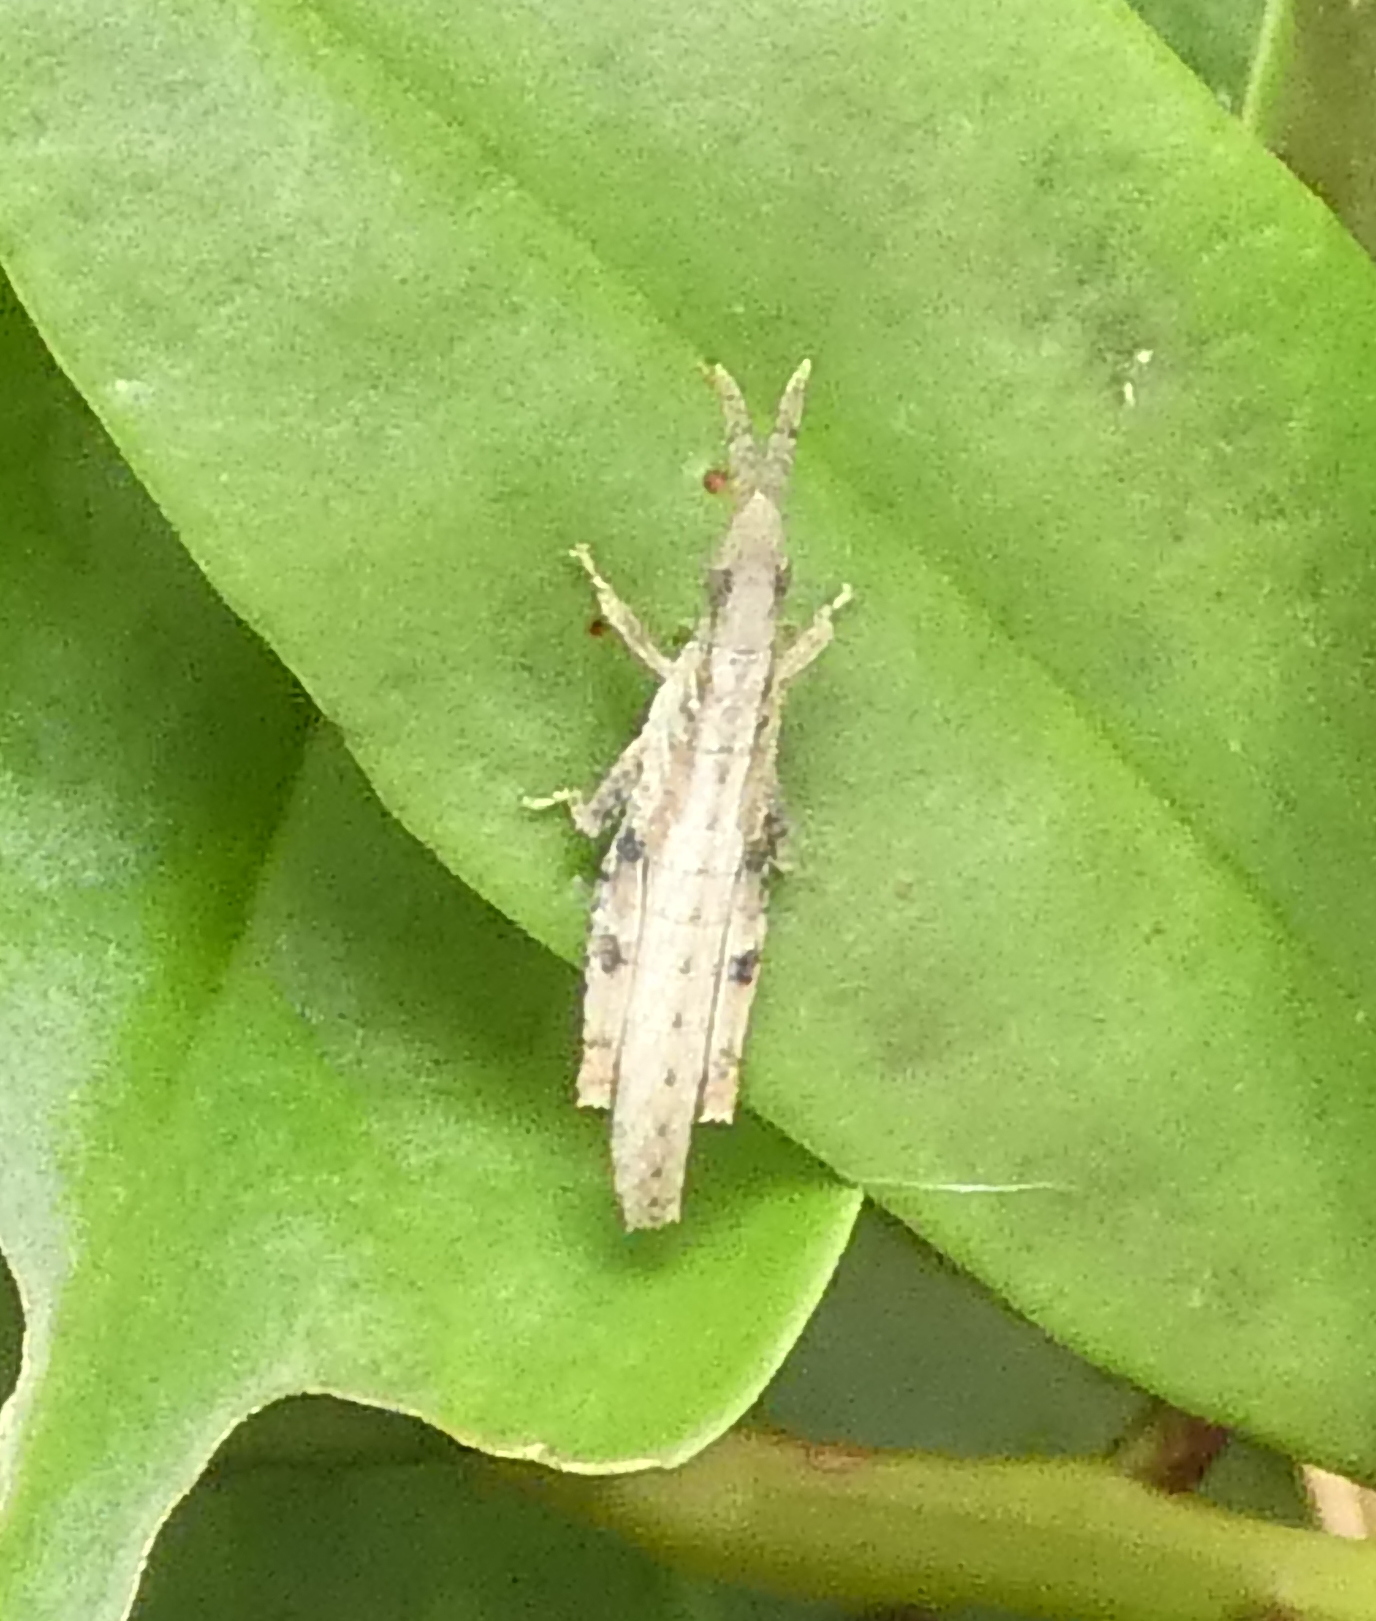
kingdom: Animalia
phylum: Arthropoda
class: Insecta
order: Orthoptera
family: Pyrgomorphidae
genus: Algete
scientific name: Algete brunneri
